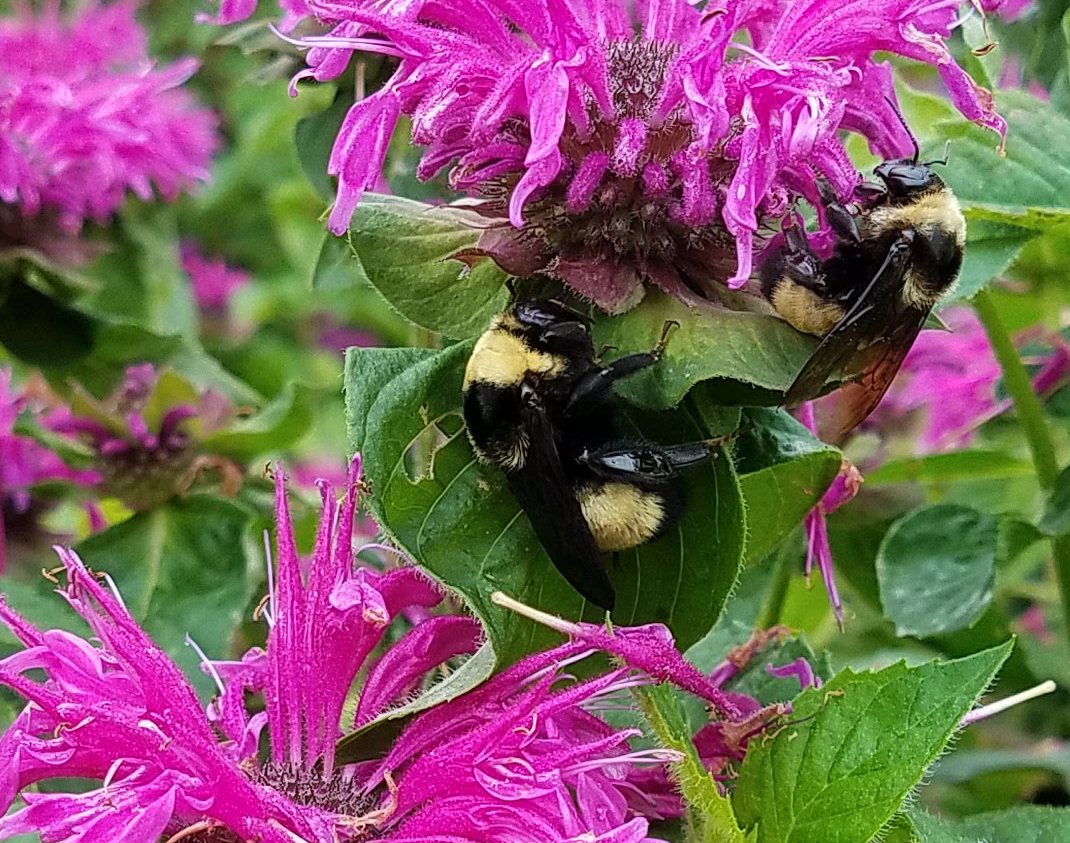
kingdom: Animalia
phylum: Arthropoda
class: Insecta
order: Hymenoptera
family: Apidae
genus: Bombus
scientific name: Bombus auricomus
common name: Black and gold bumble bee
